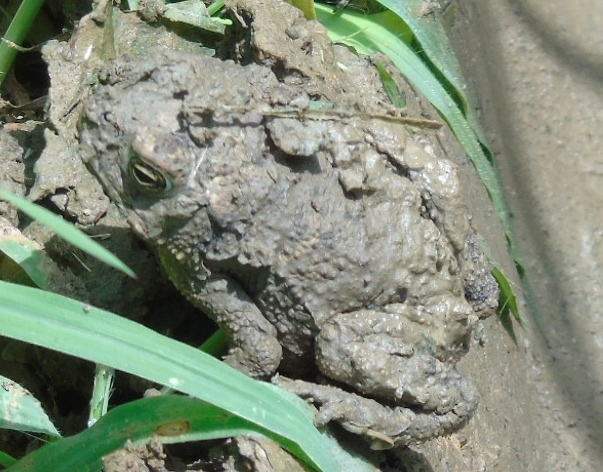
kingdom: Animalia
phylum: Chordata
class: Amphibia
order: Anura
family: Bufonidae
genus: Rhinella
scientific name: Rhinella horribilis
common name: Mesoamerican cane toad
